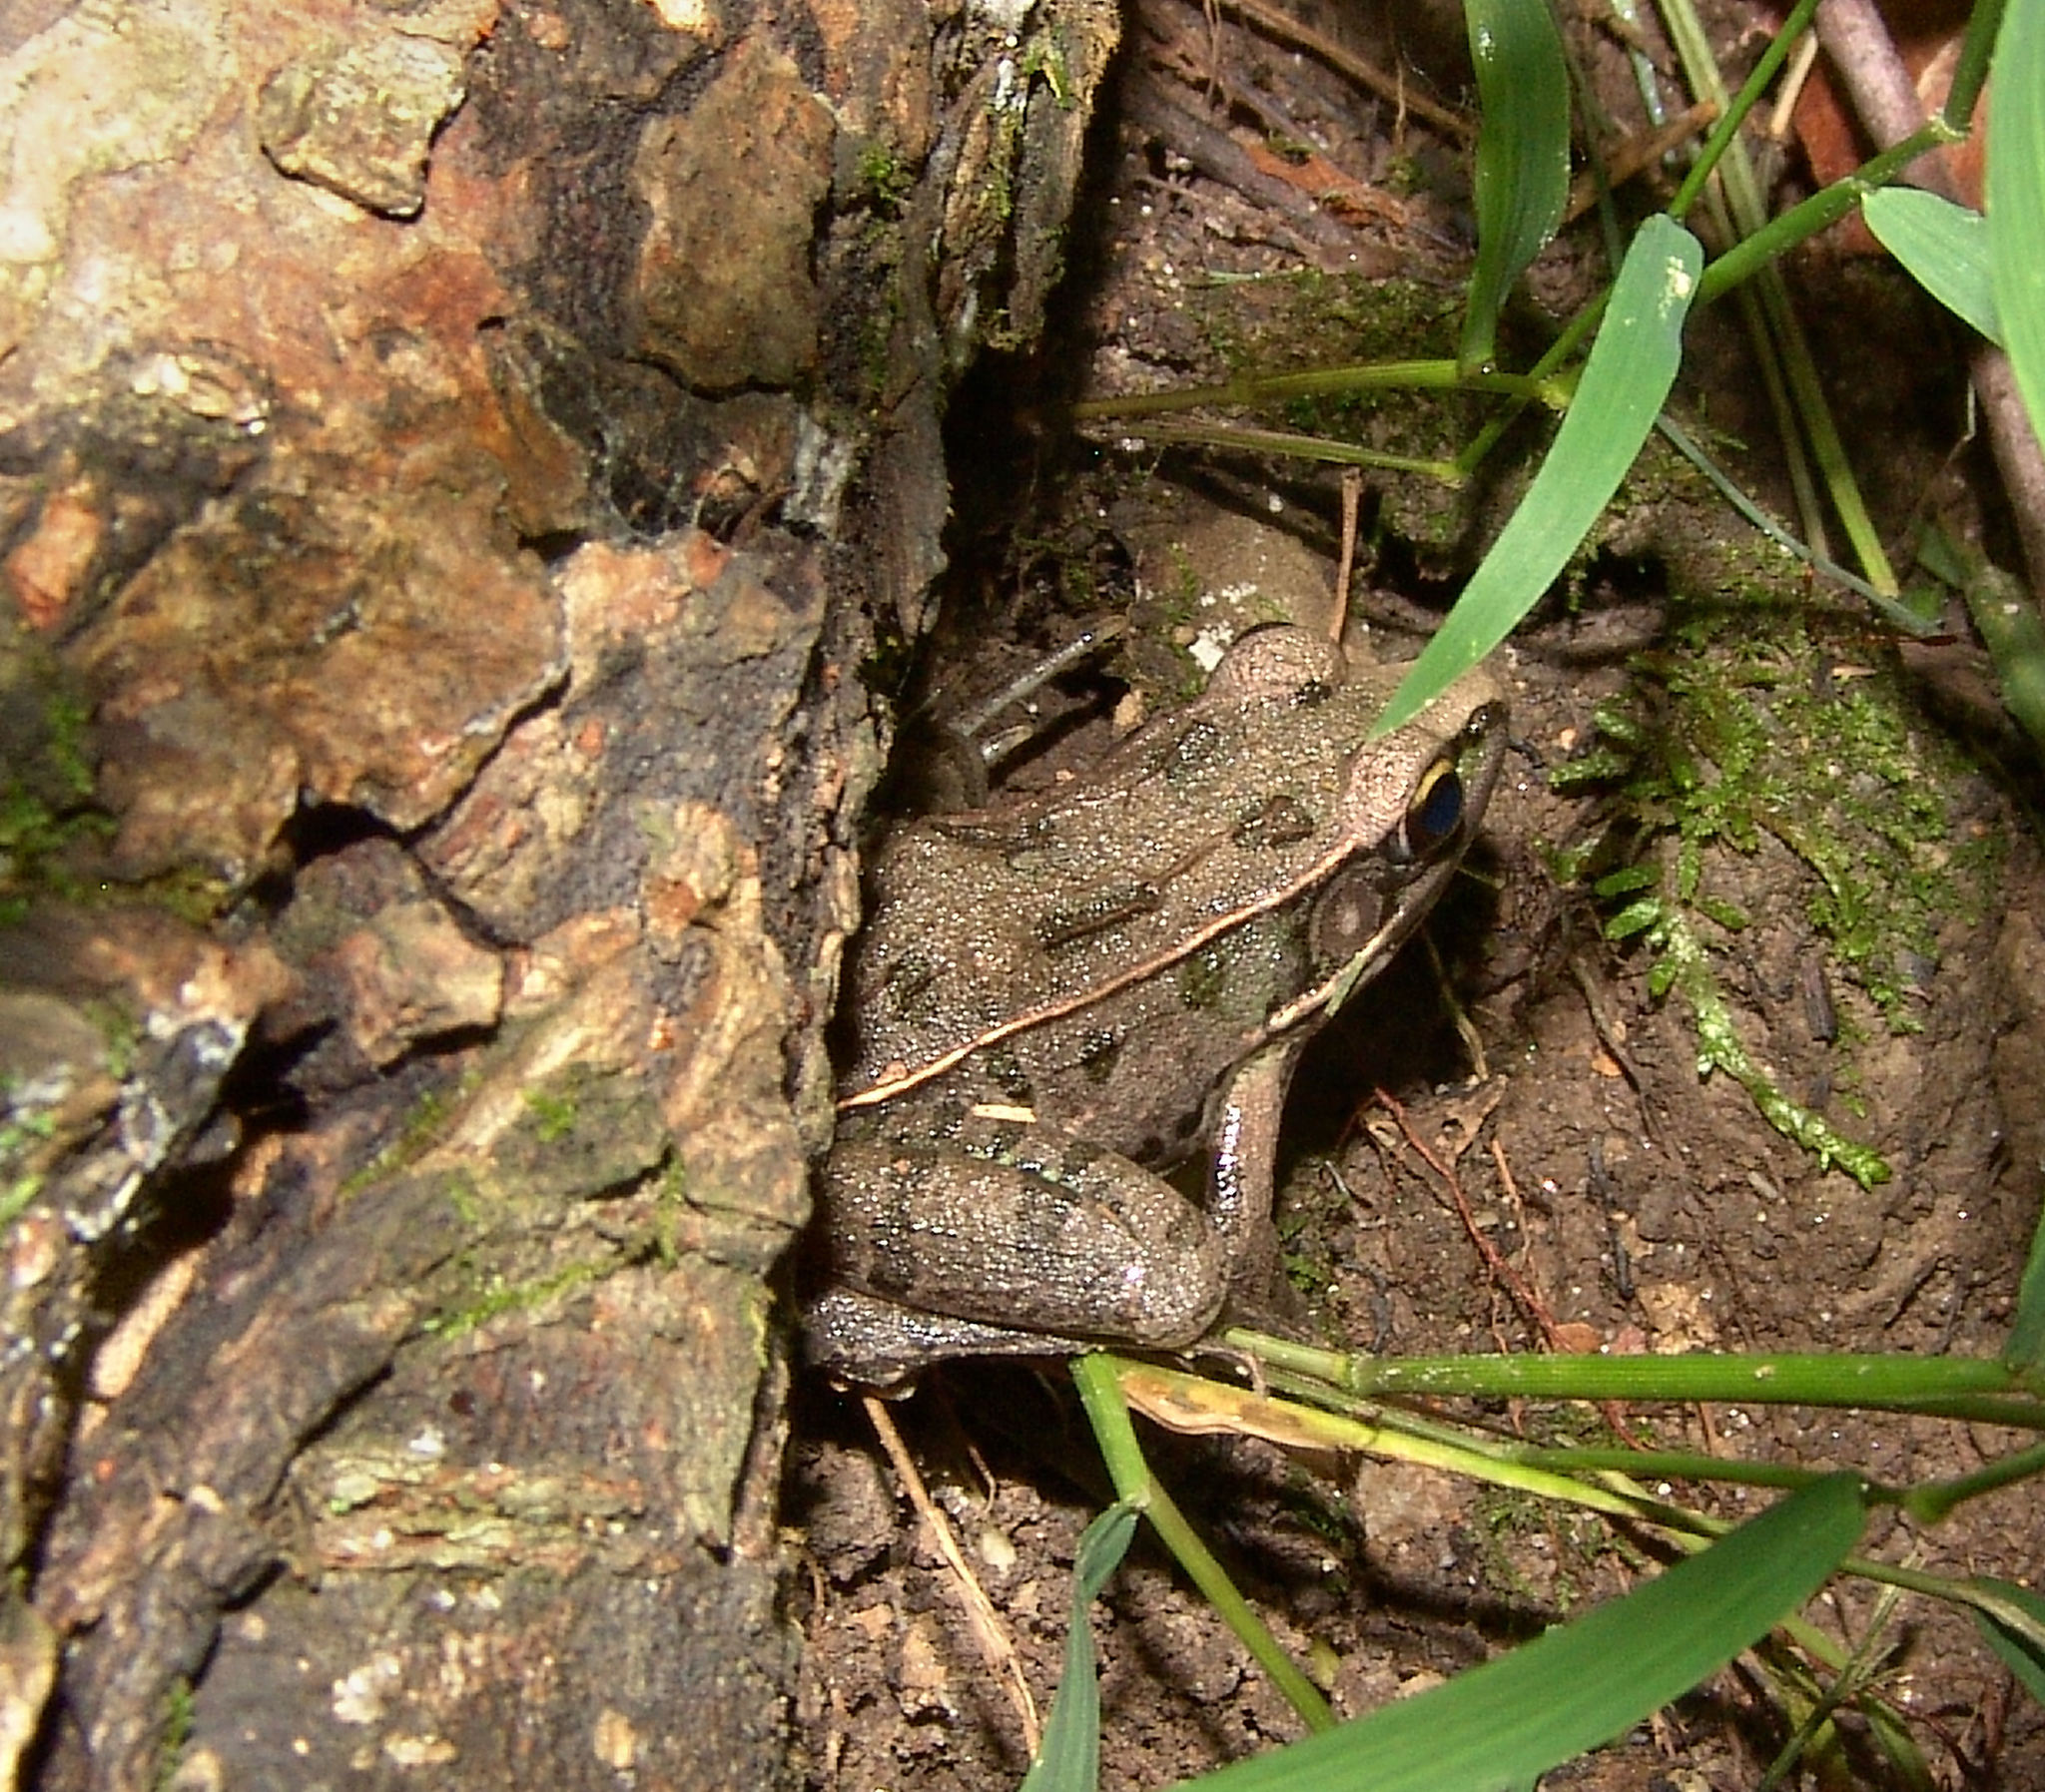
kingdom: Animalia
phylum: Chordata
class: Amphibia
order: Anura
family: Ranidae
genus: Lithobates
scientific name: Lithobates sphenocephalus
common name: Southern leopard frog
